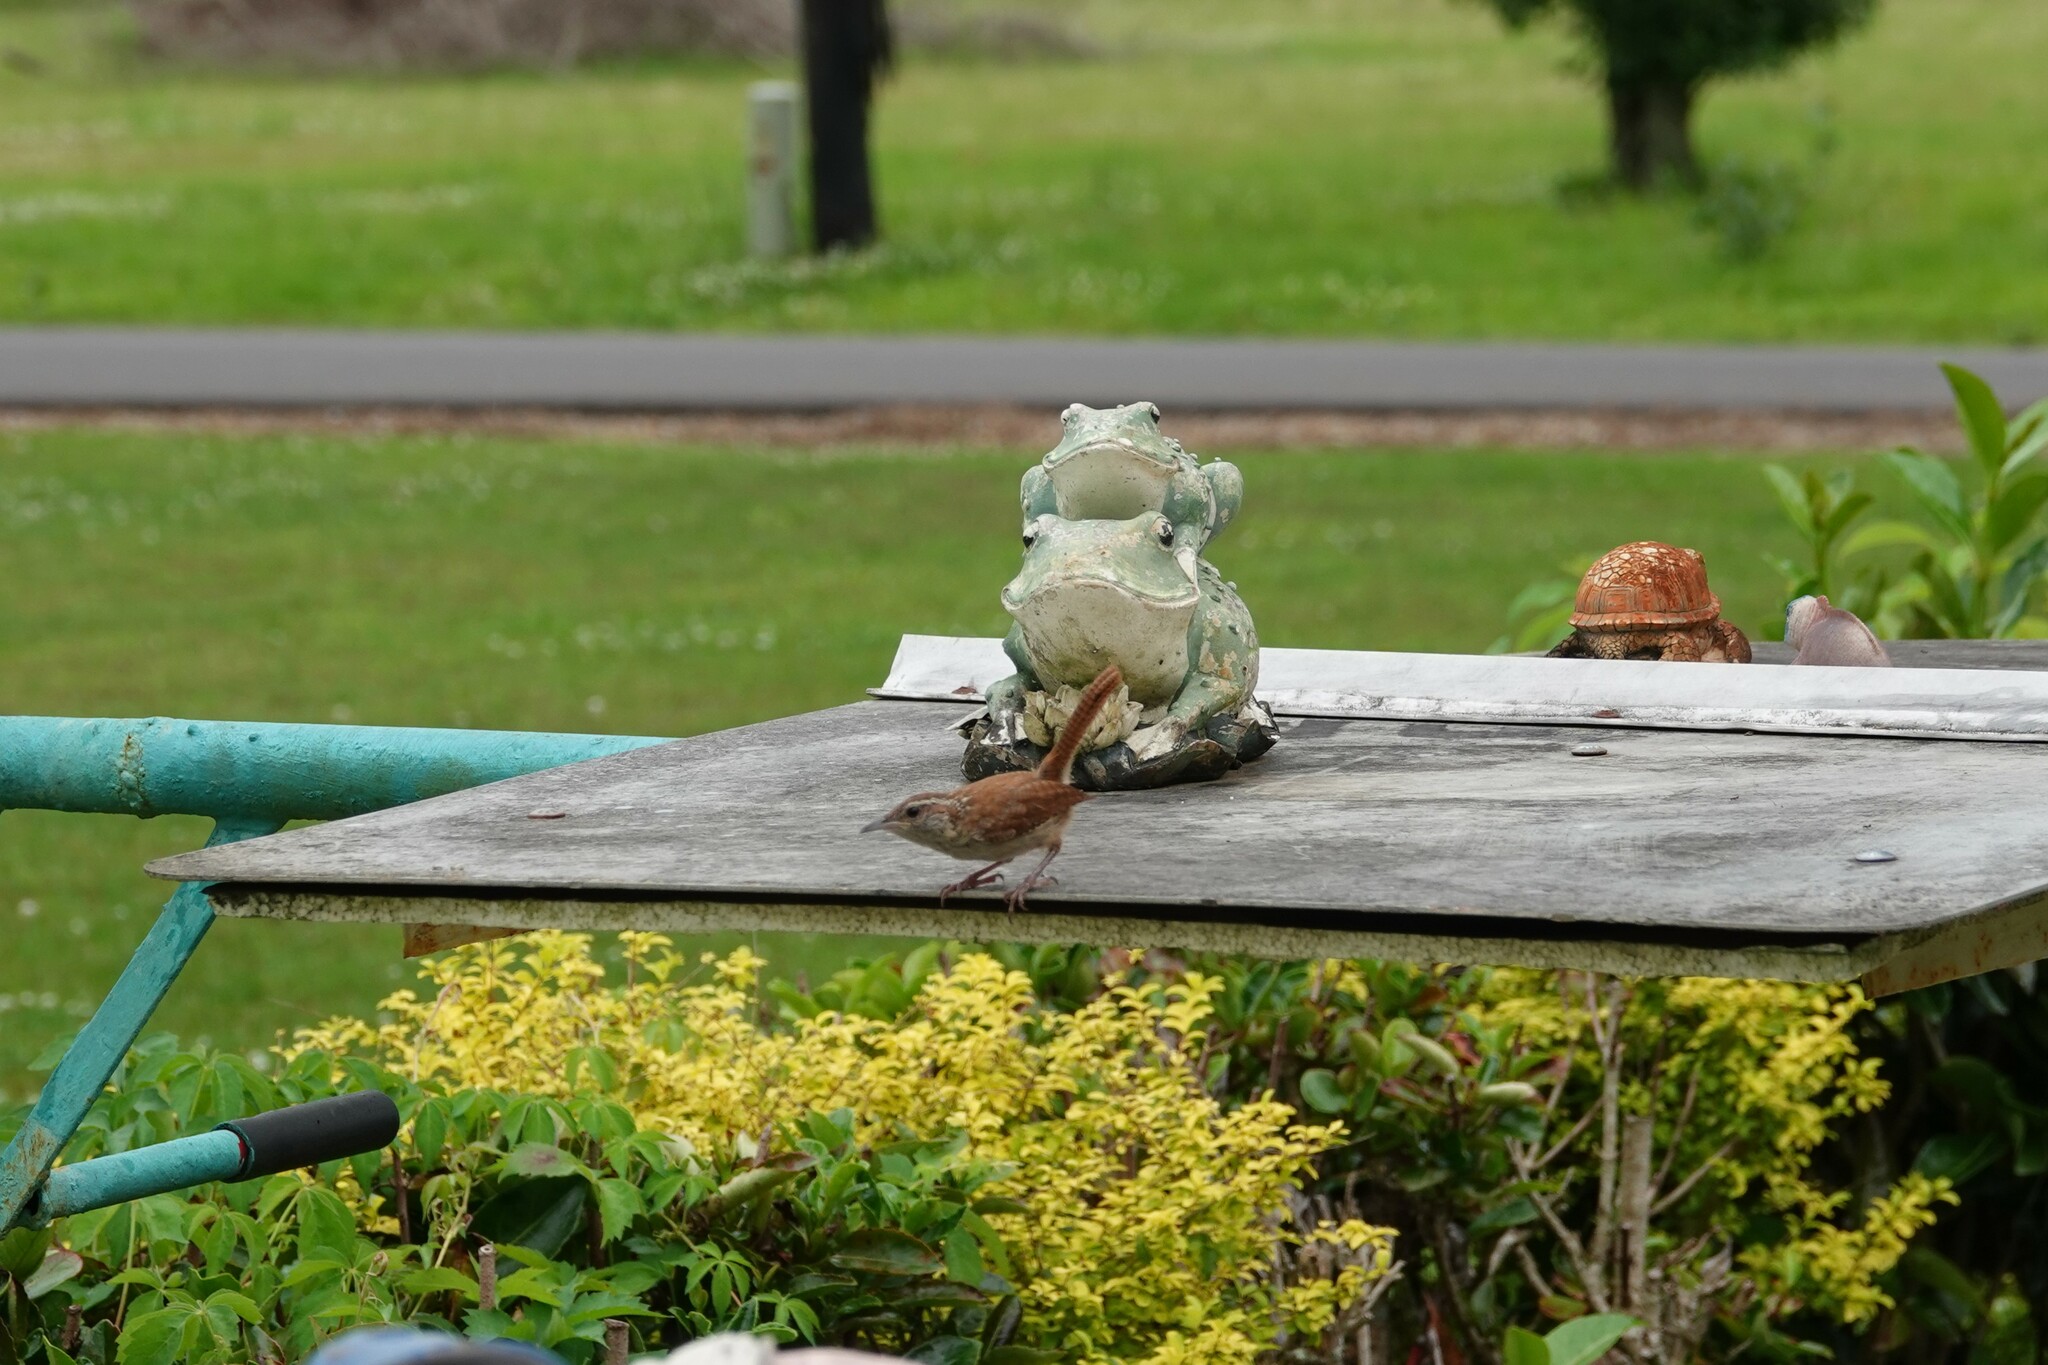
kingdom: Animalia
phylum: Chordata
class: Aves
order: Passeriformes
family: Troglodytidae
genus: Thryothorus
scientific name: Thryothorus ludovicianus
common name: Carolina wren
